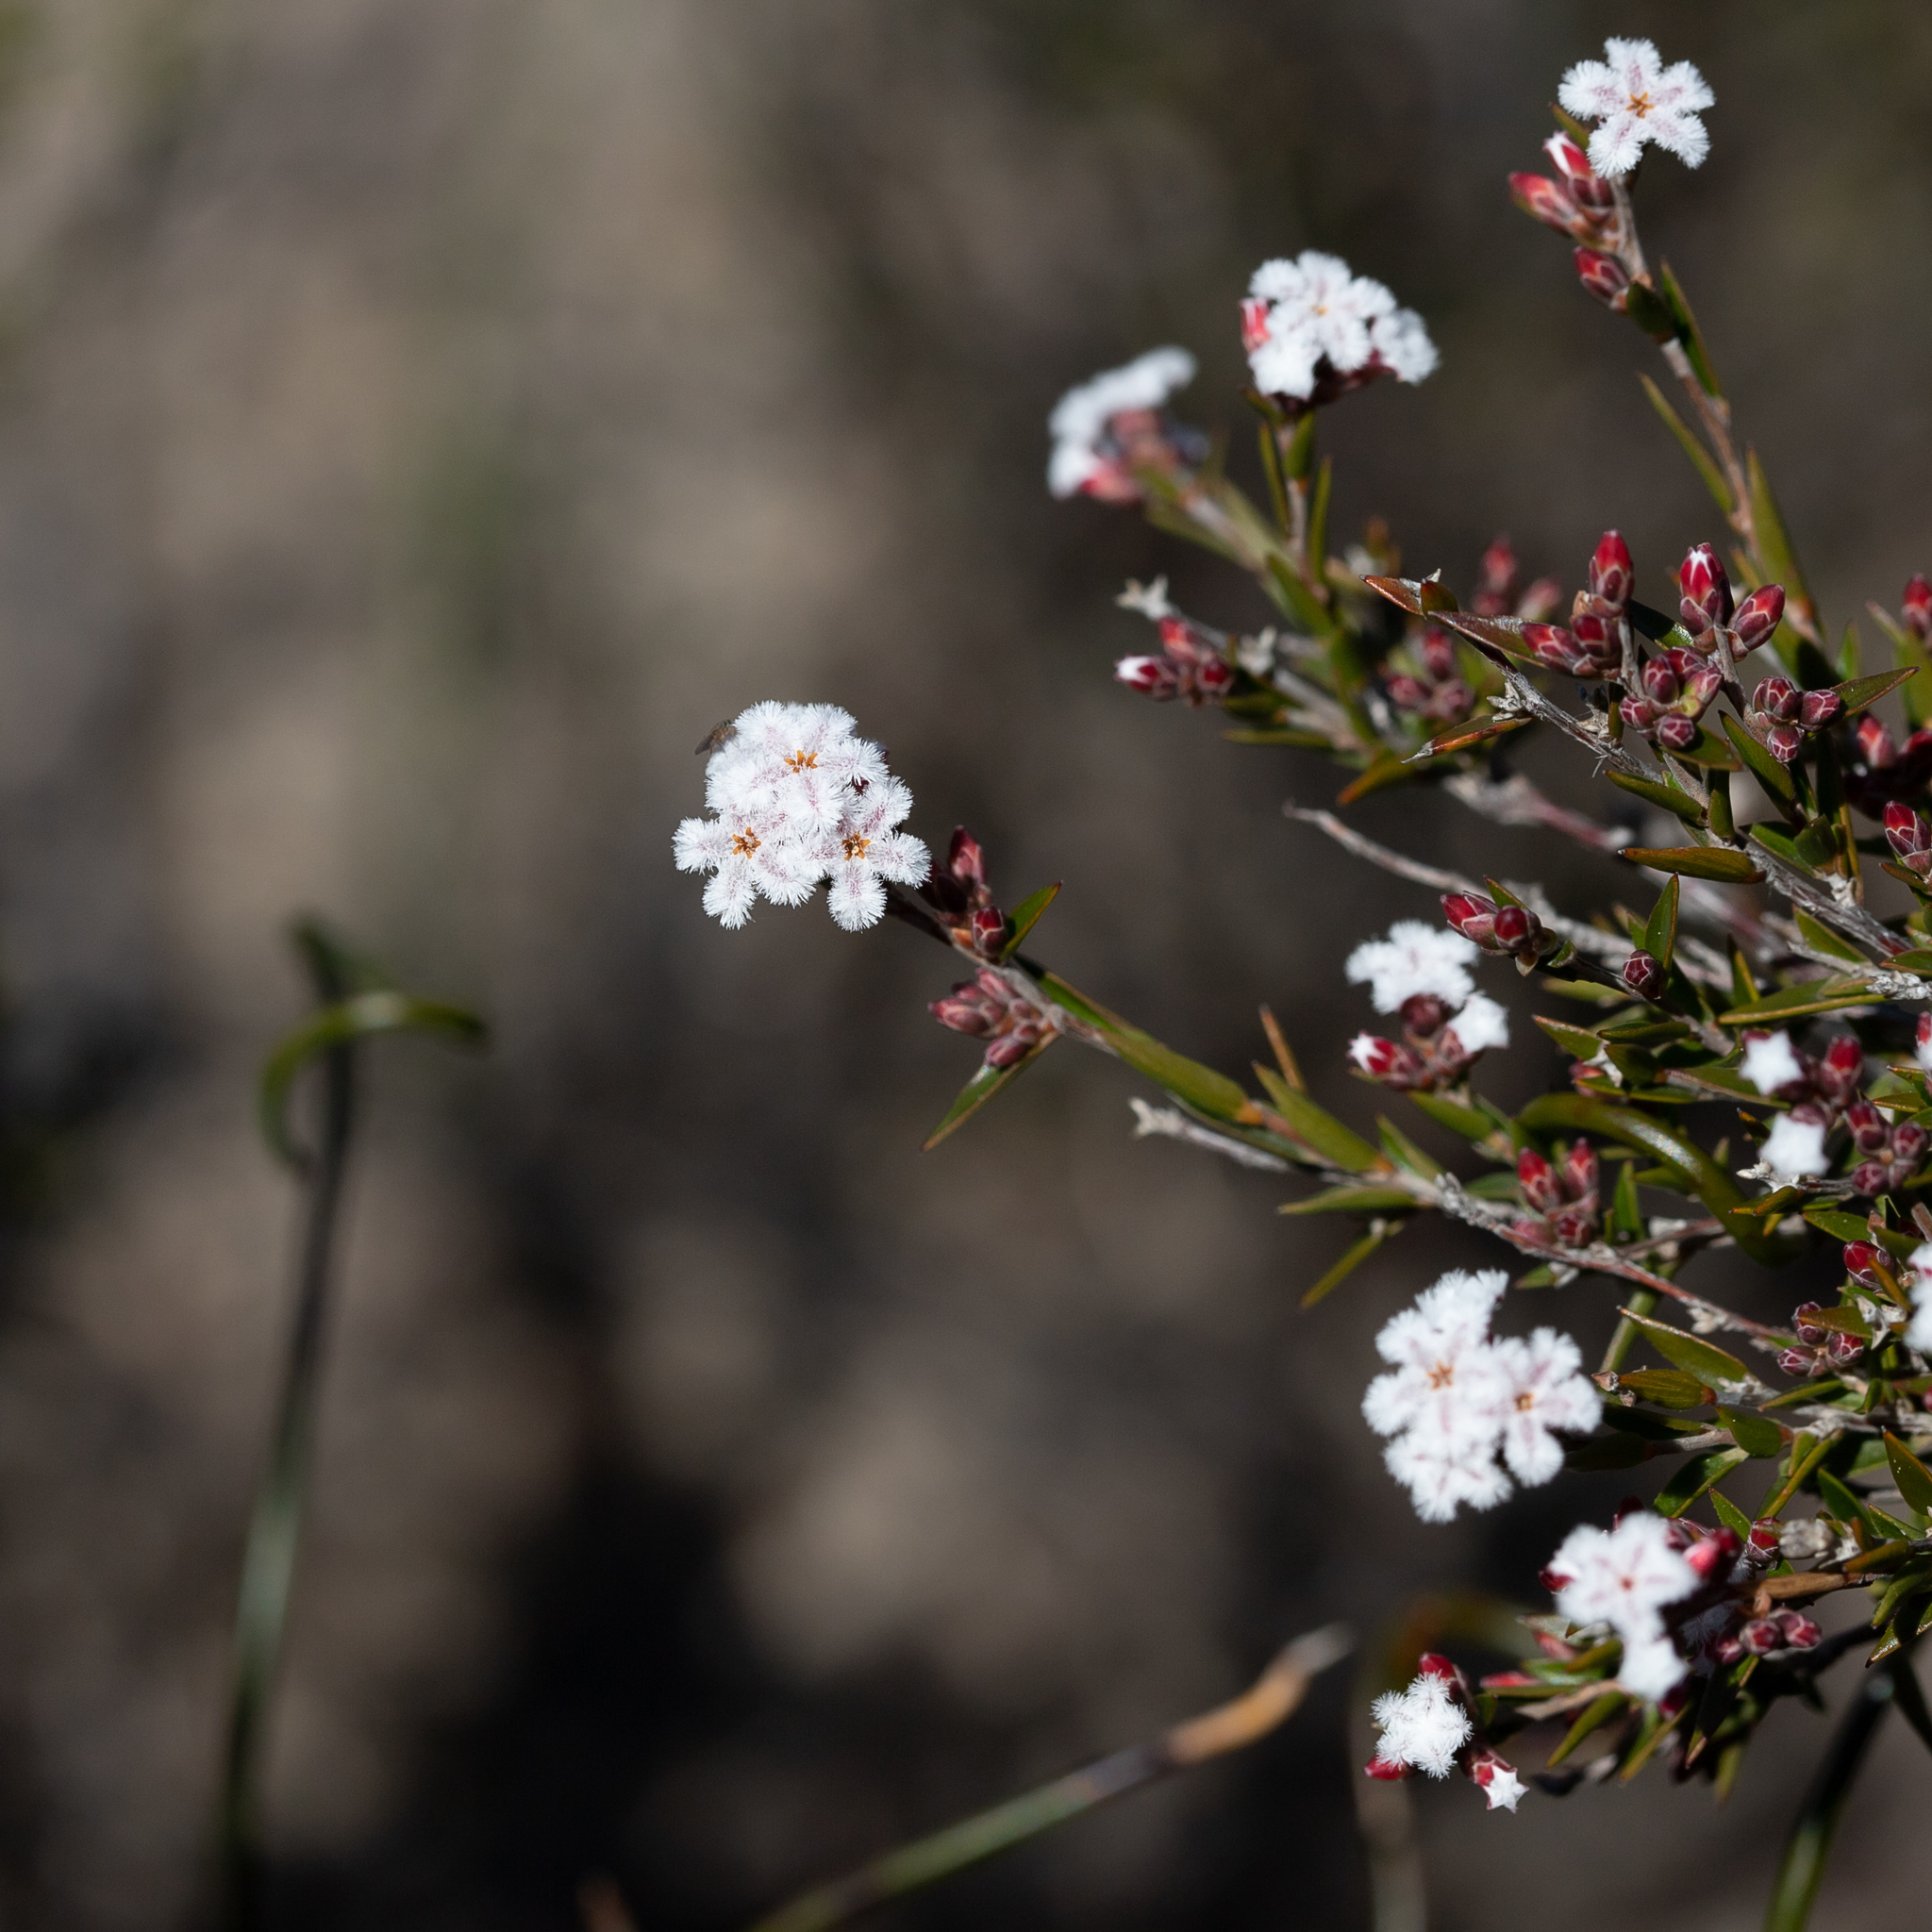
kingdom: Plantae
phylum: Tracheophyta
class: Magnoliopsida
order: Ericales
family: Ericaceae
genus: Leucopogon
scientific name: Leucopogon virgatus
